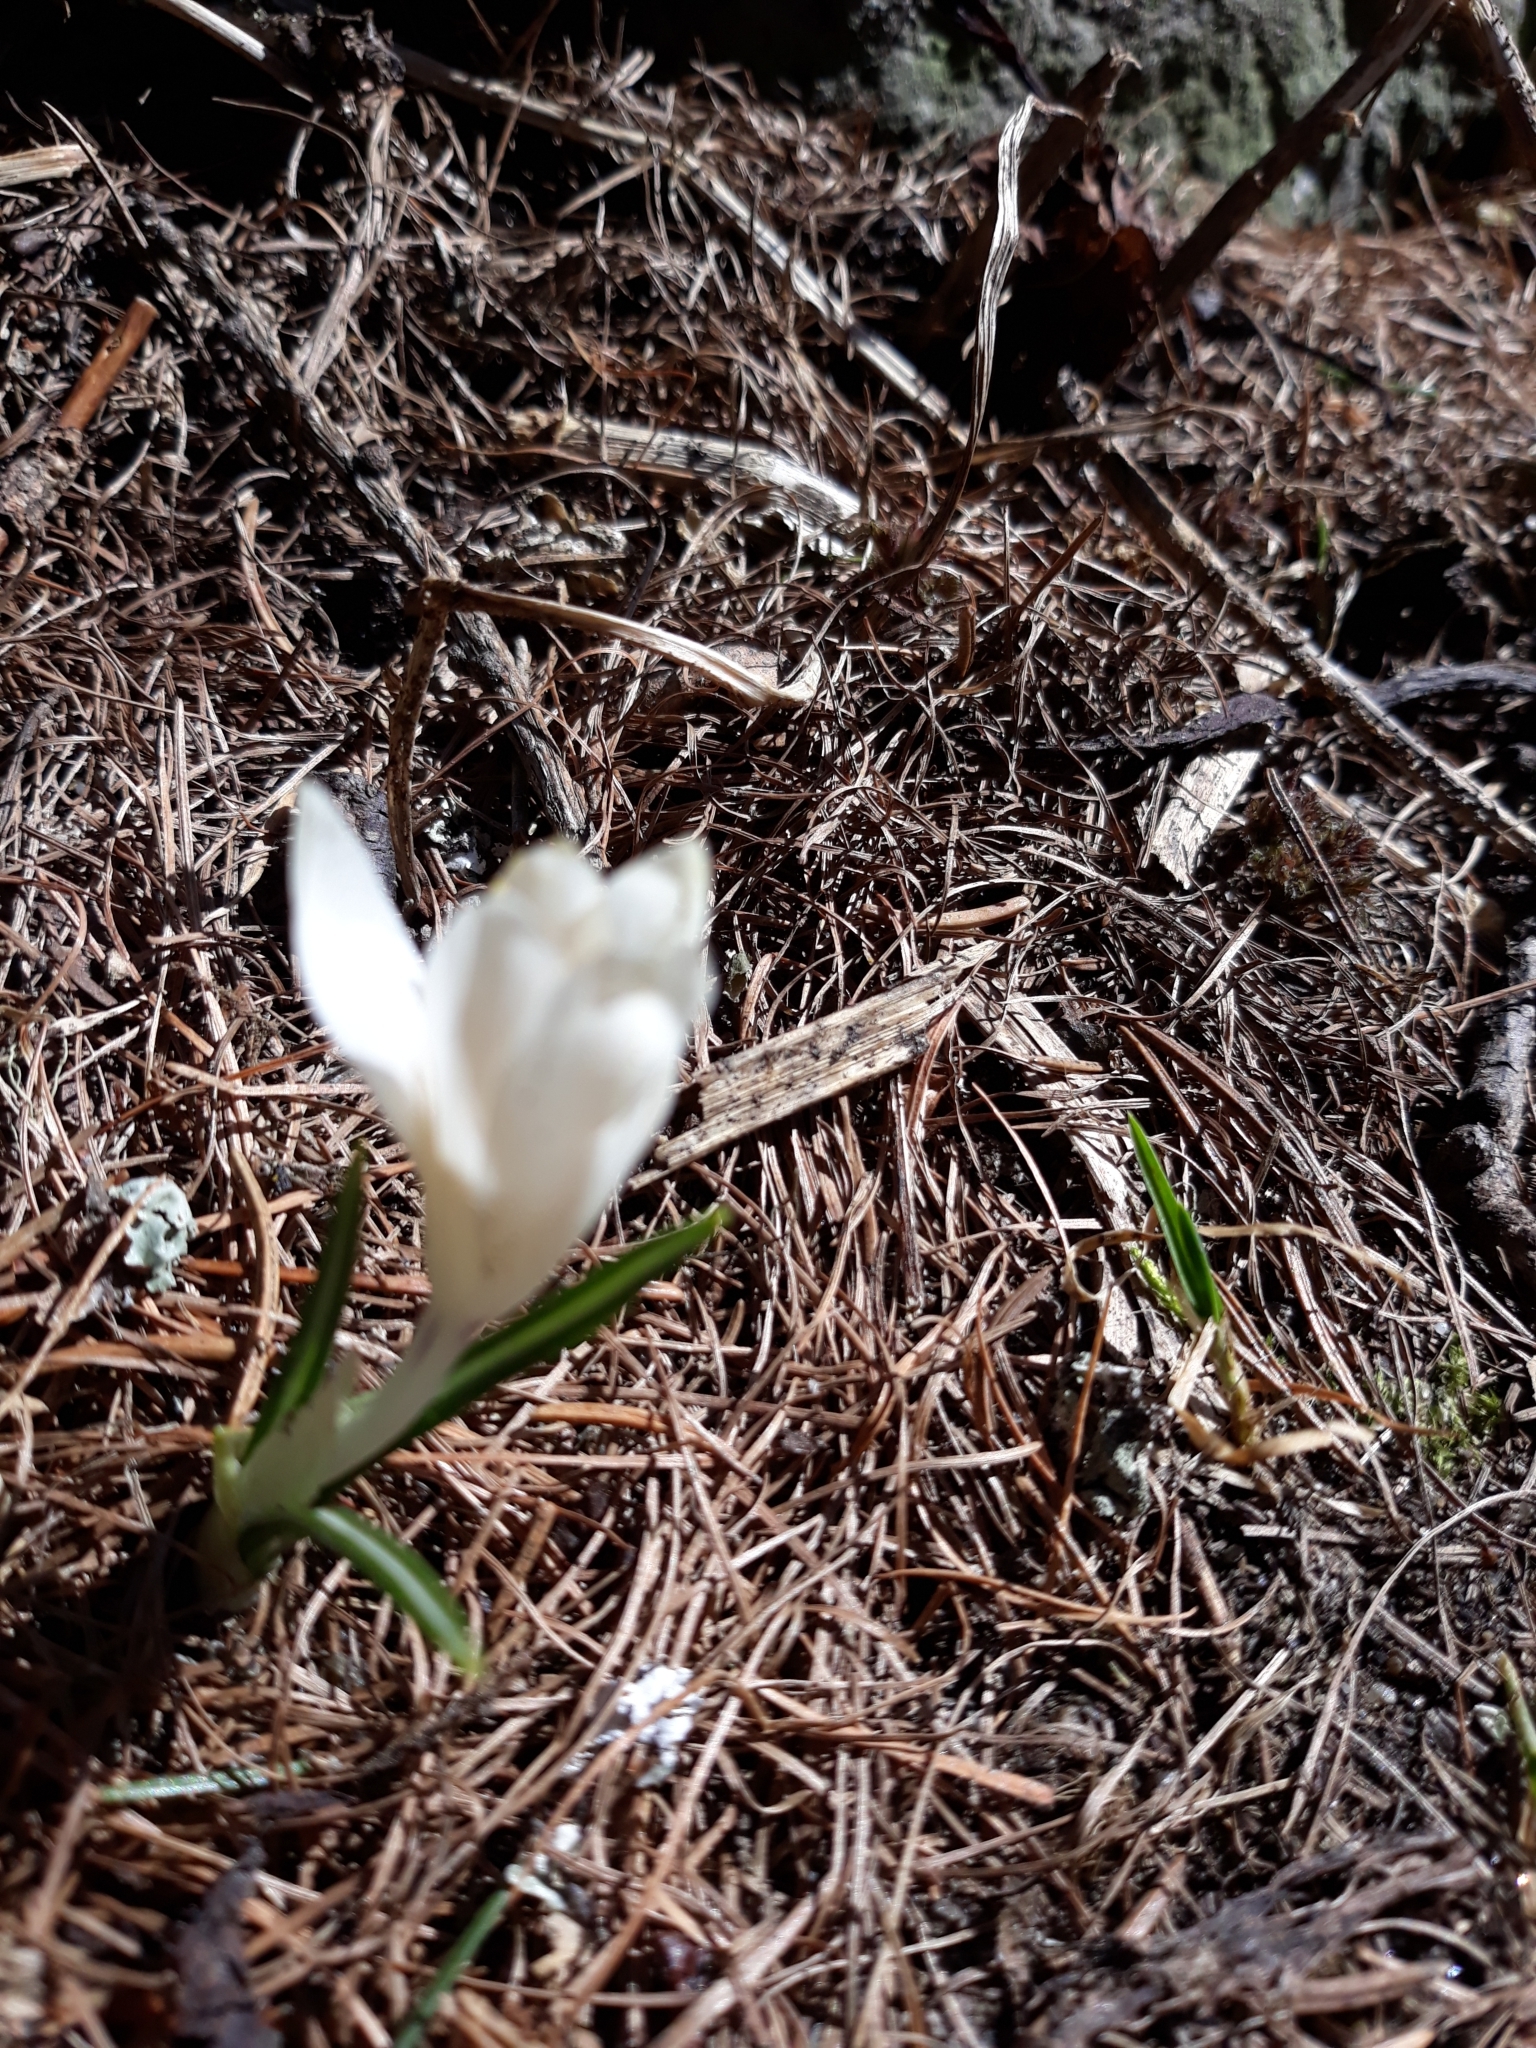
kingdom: Plantae
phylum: Tracheophyta
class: Liliopsida
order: Asparagales
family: Iridaceae
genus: Crocus
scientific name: Crocus vernus
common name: Spring crocus
